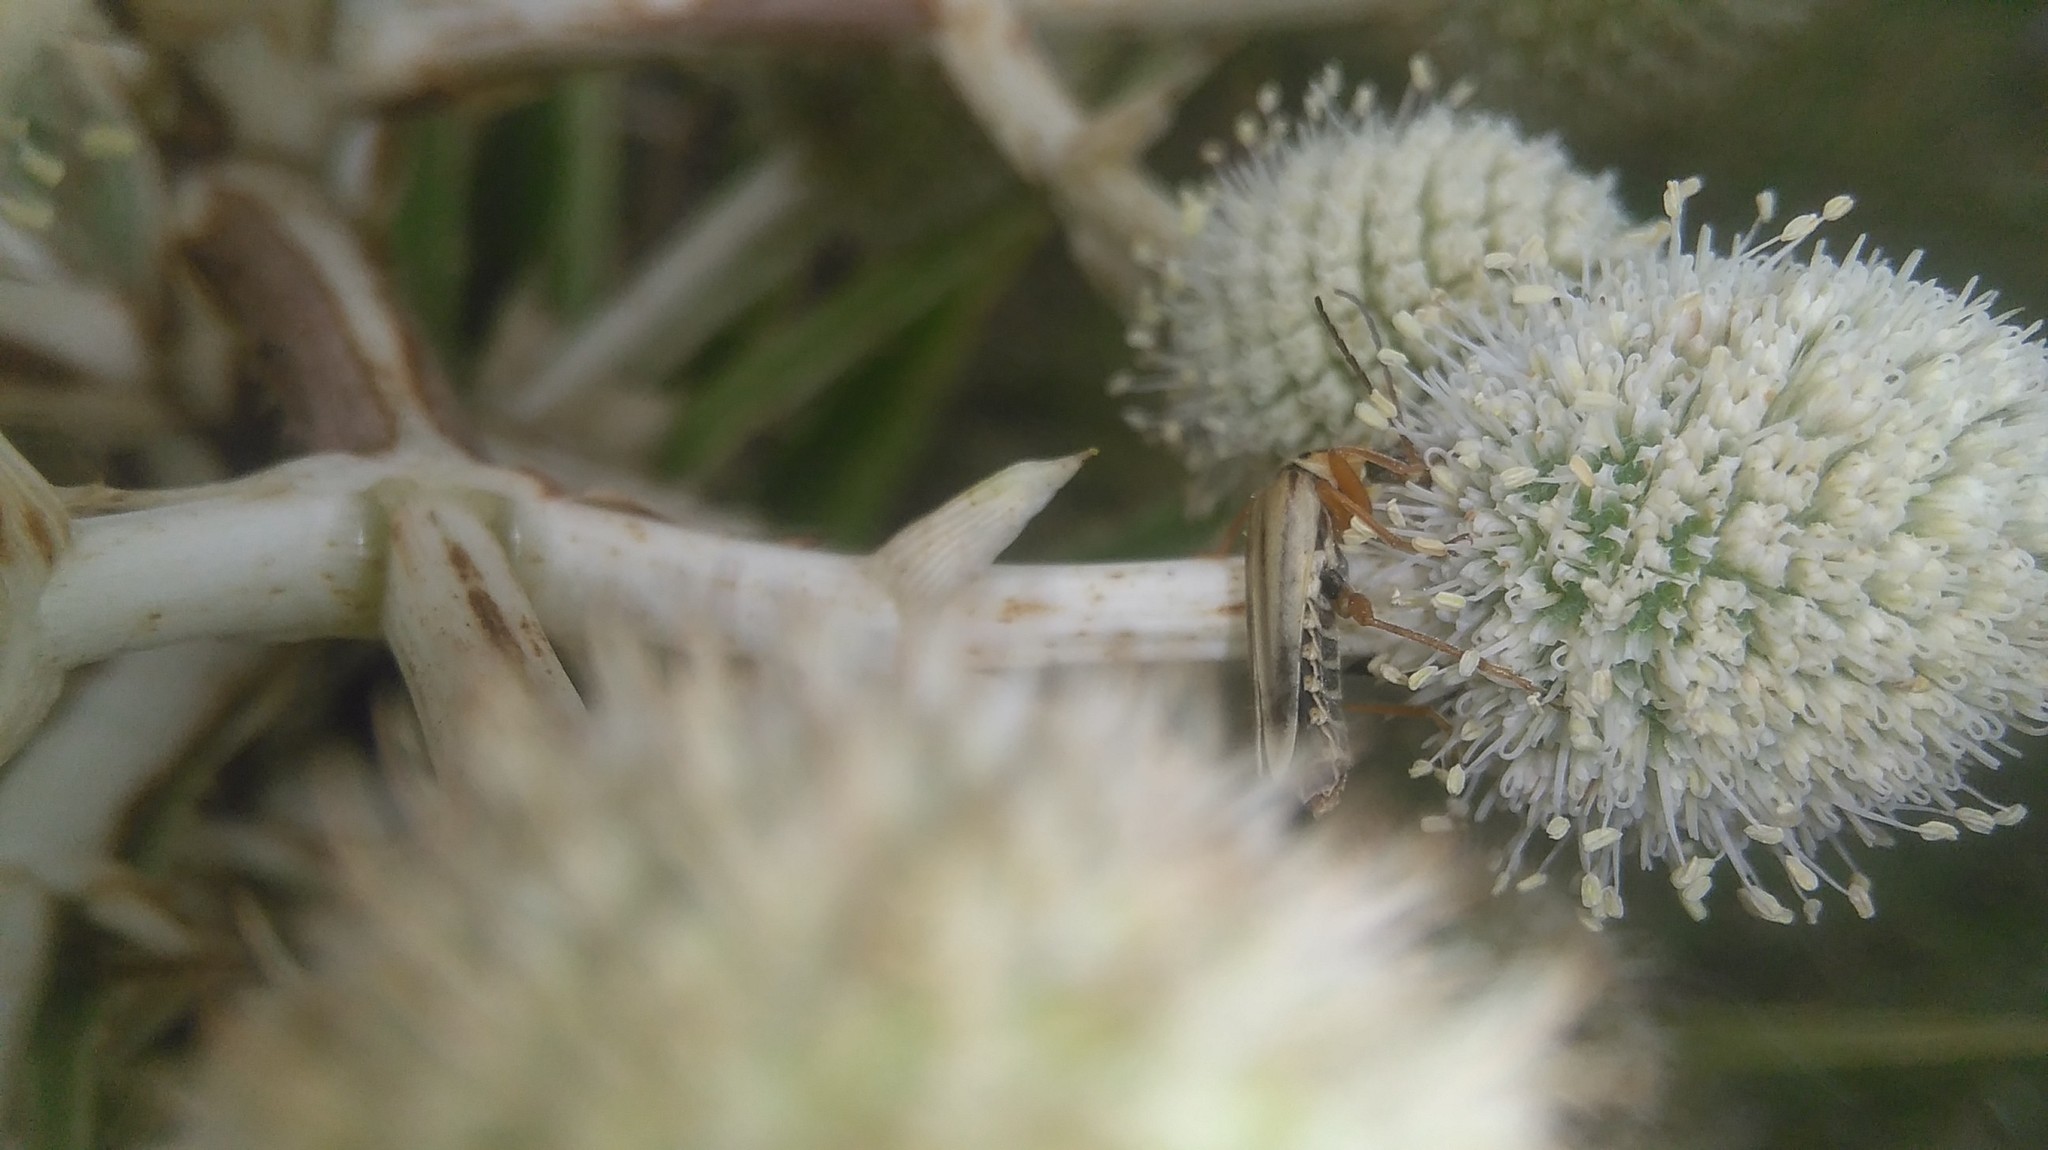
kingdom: Animalia
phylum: Arthropoda
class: Insecta
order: Coleoptera
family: Cantharidae
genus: Chauliognathus
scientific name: Chauliognathus
